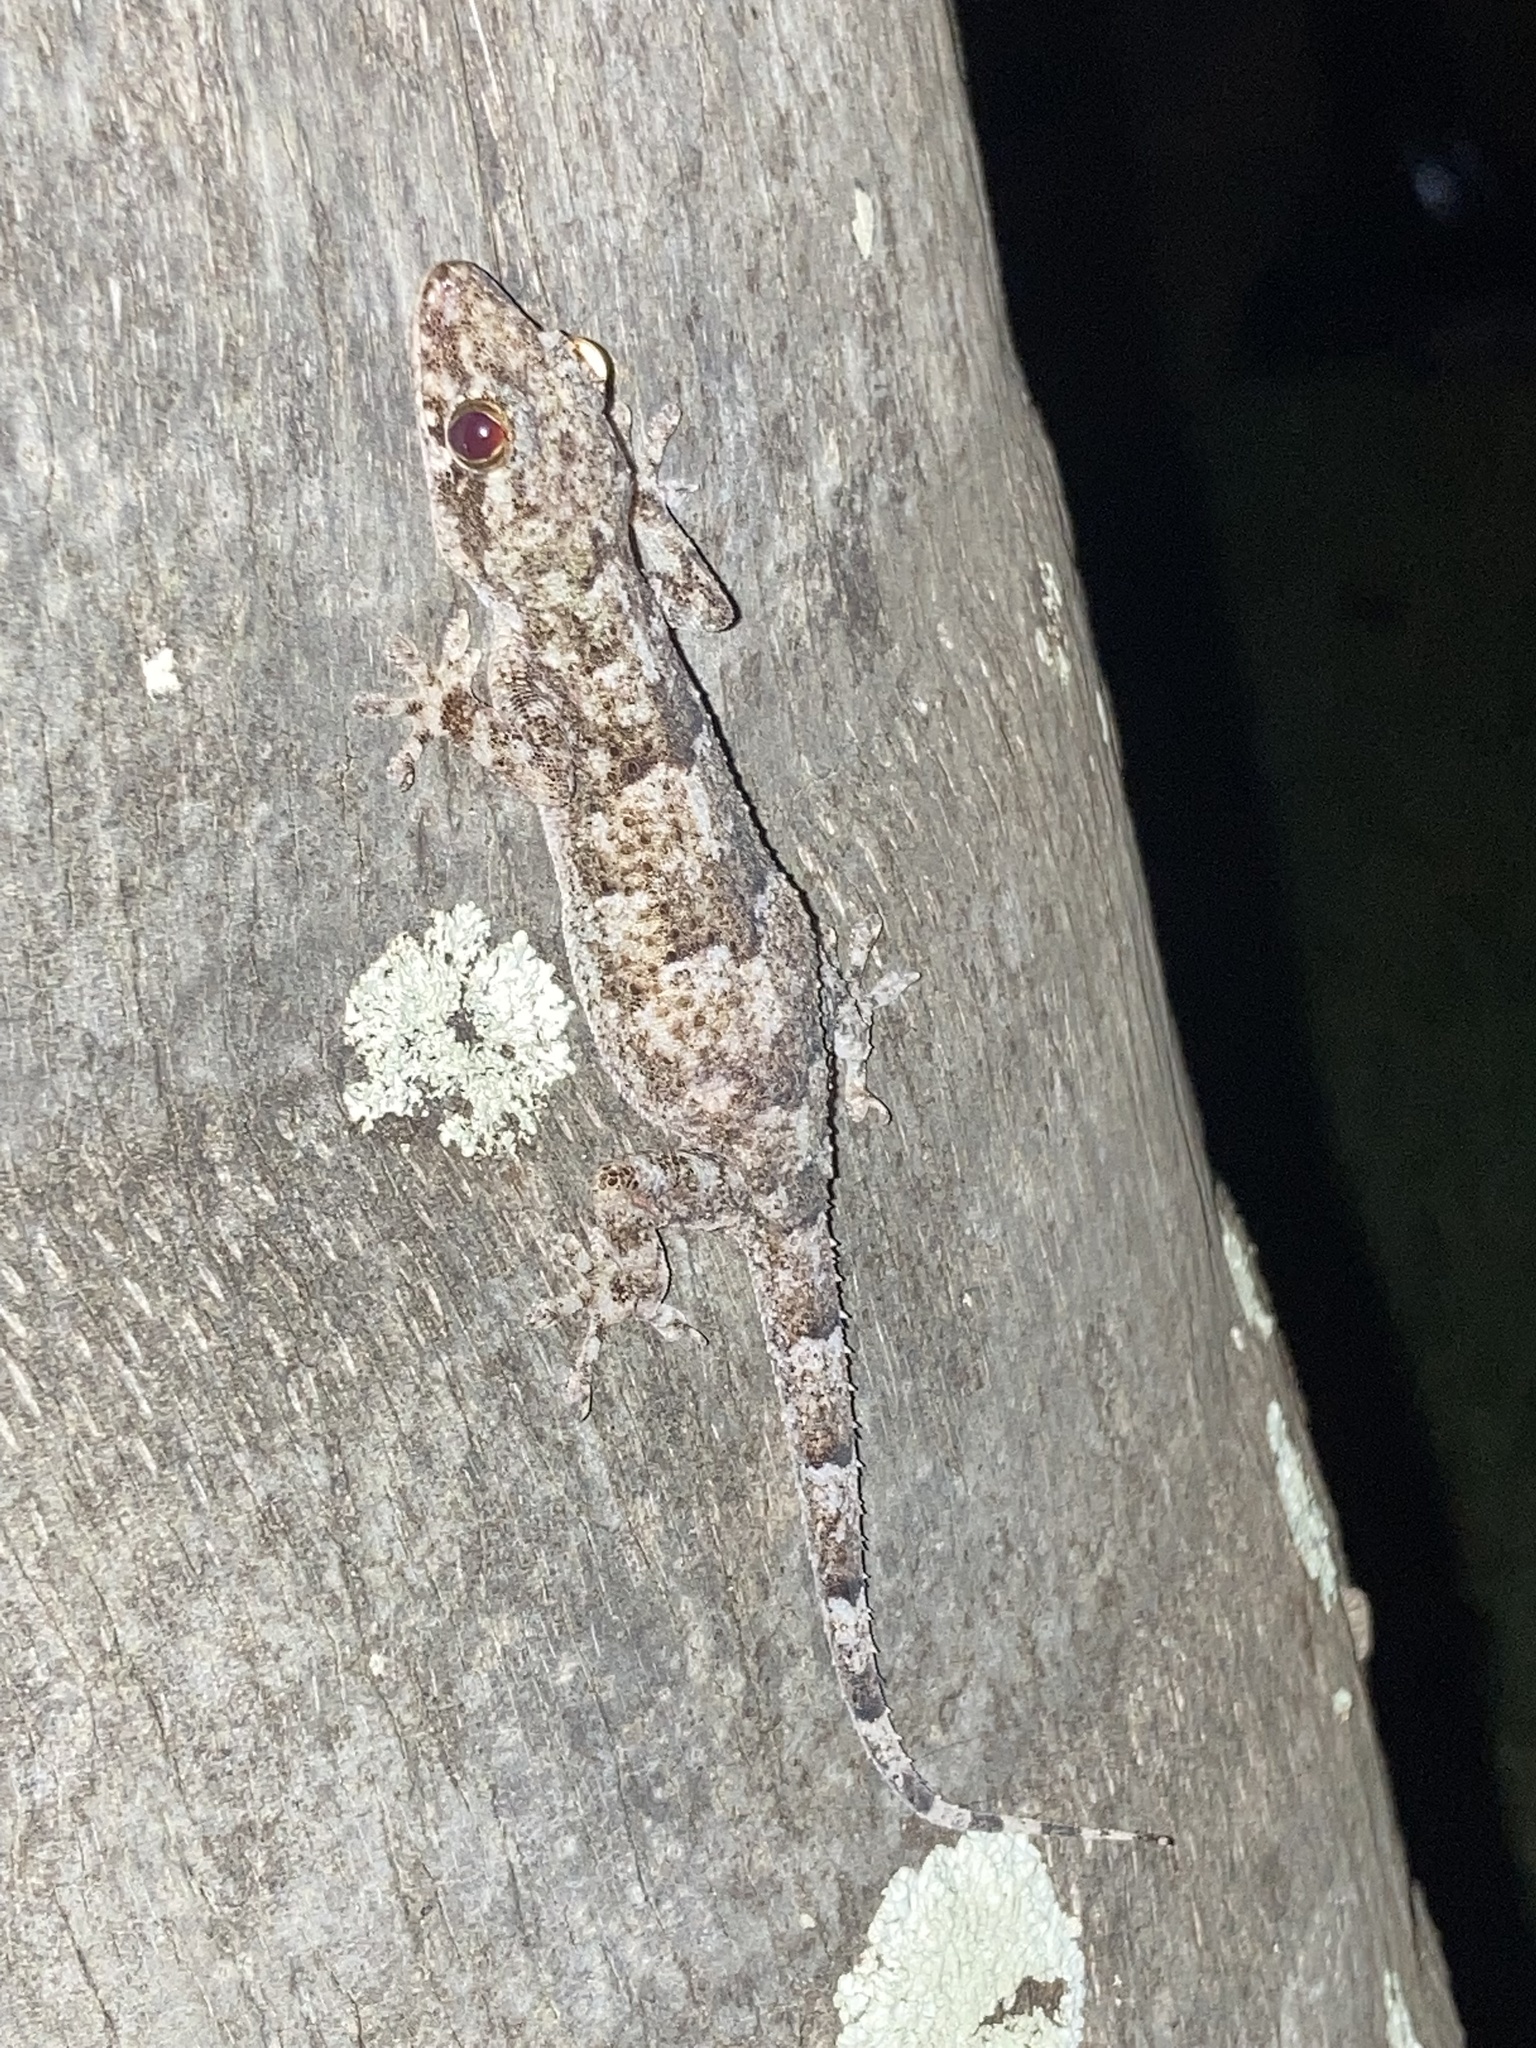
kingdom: Animalia
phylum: Chordata
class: Squamata
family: Gekkonidae
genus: Hemidactylus
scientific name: Hemidactylus mabouia
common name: House gecko
